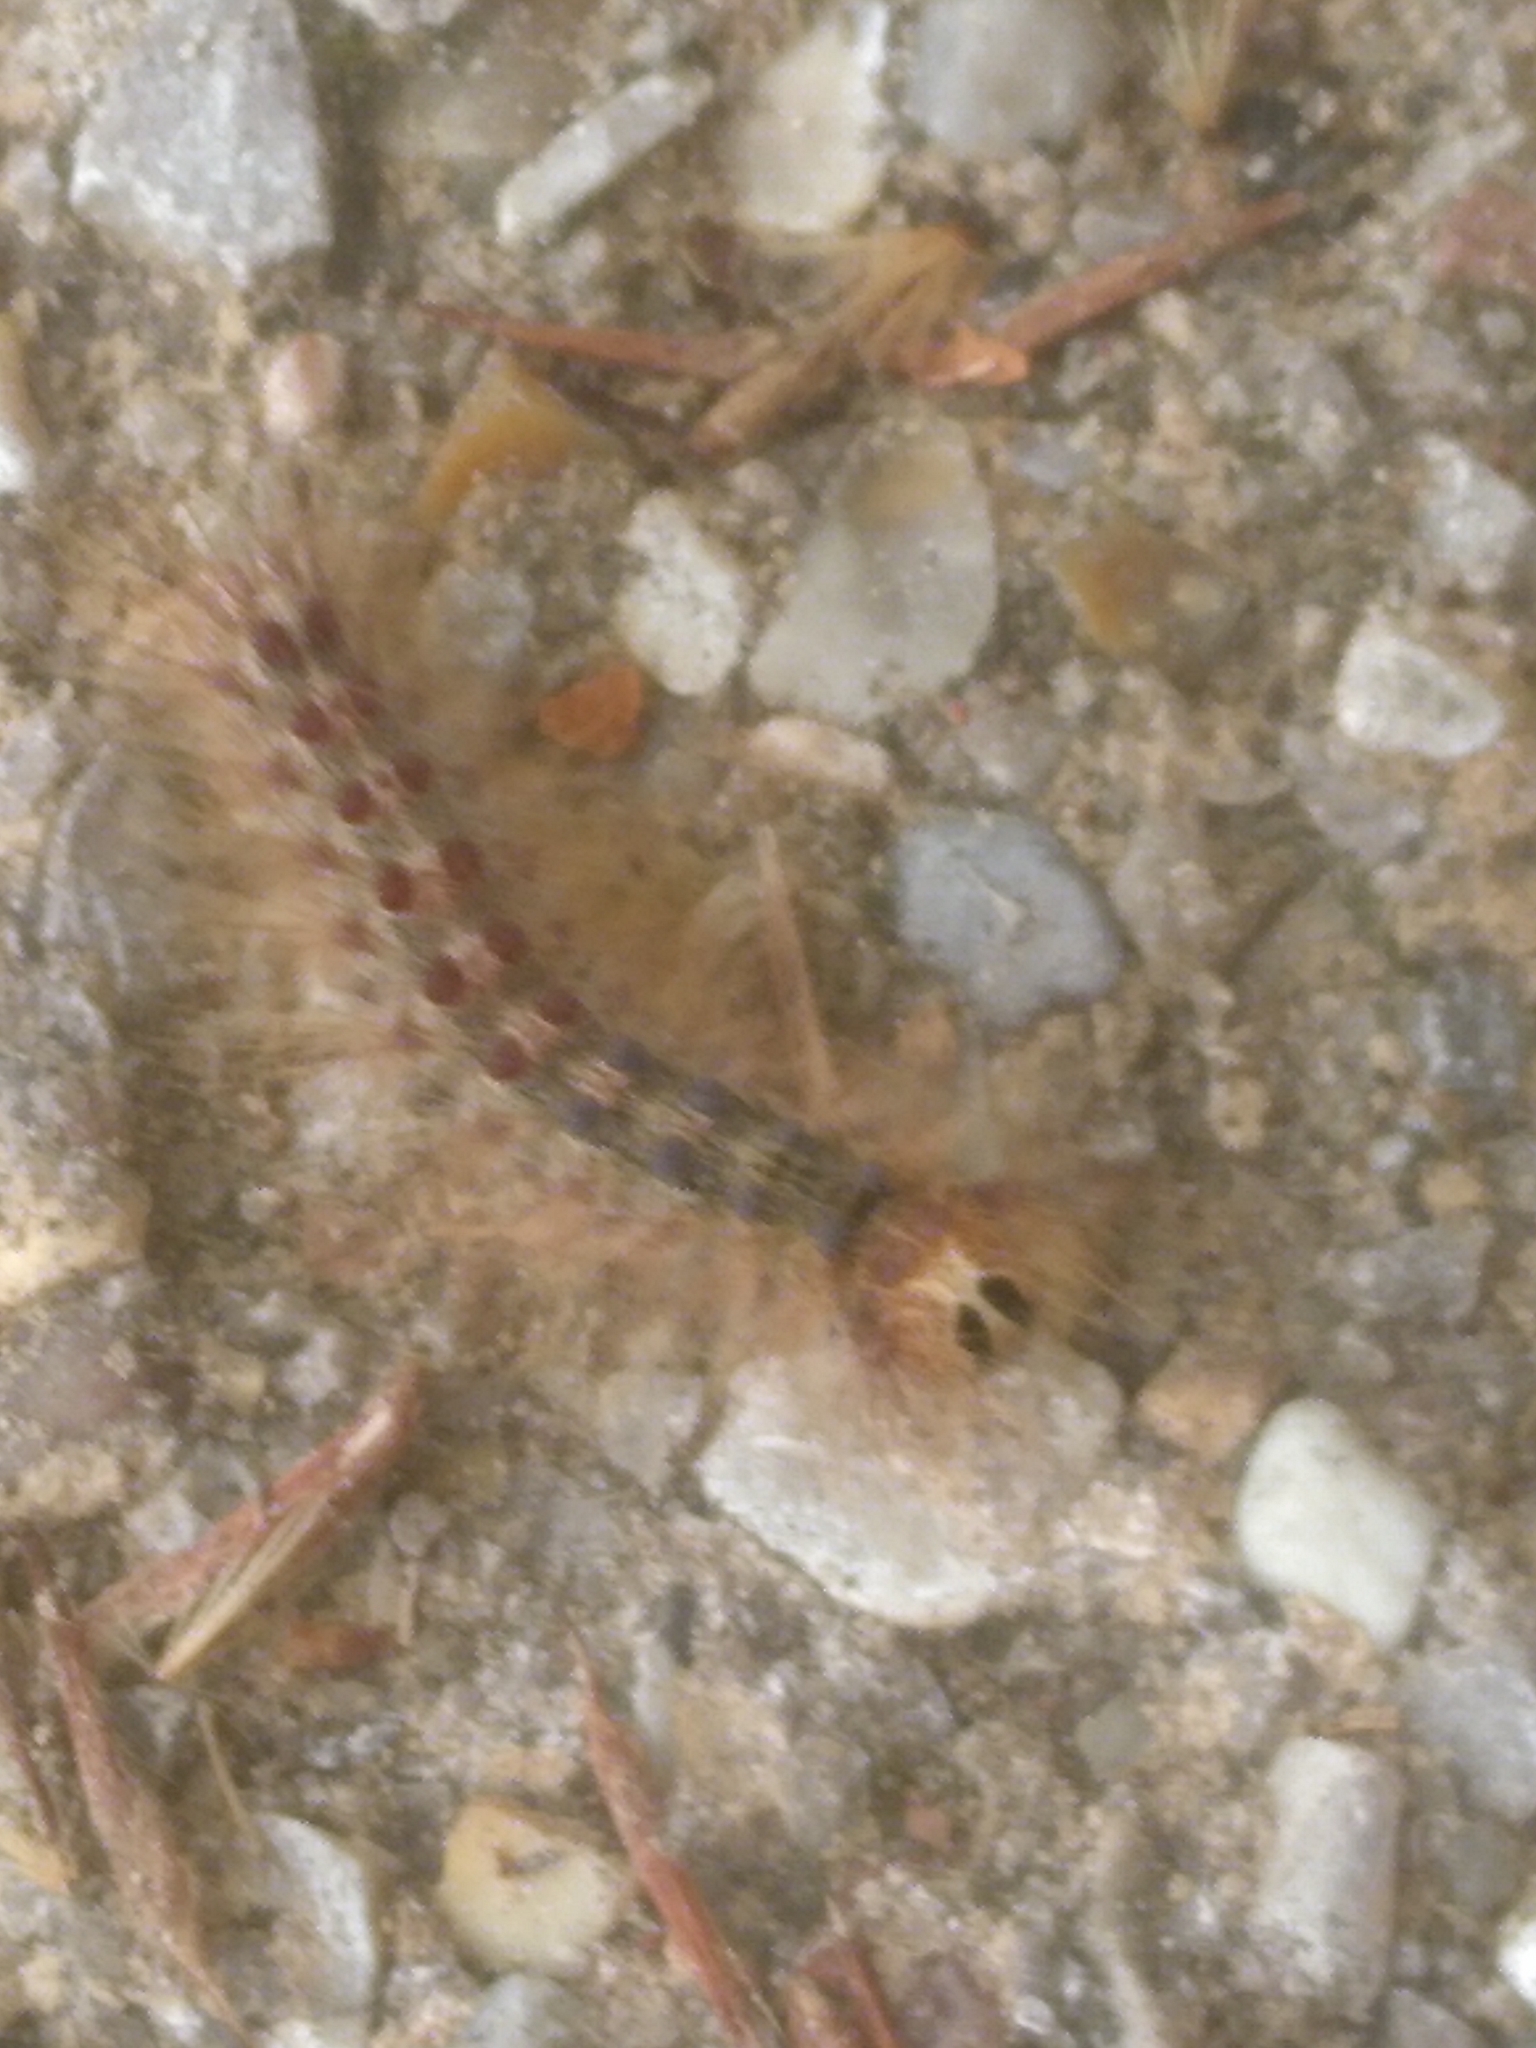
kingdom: Animalia
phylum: Arthropoda
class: Insecta
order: Lepidoptera
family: Erebidae
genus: Lymantria
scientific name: Lymantria dispar
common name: Gypsy moth
